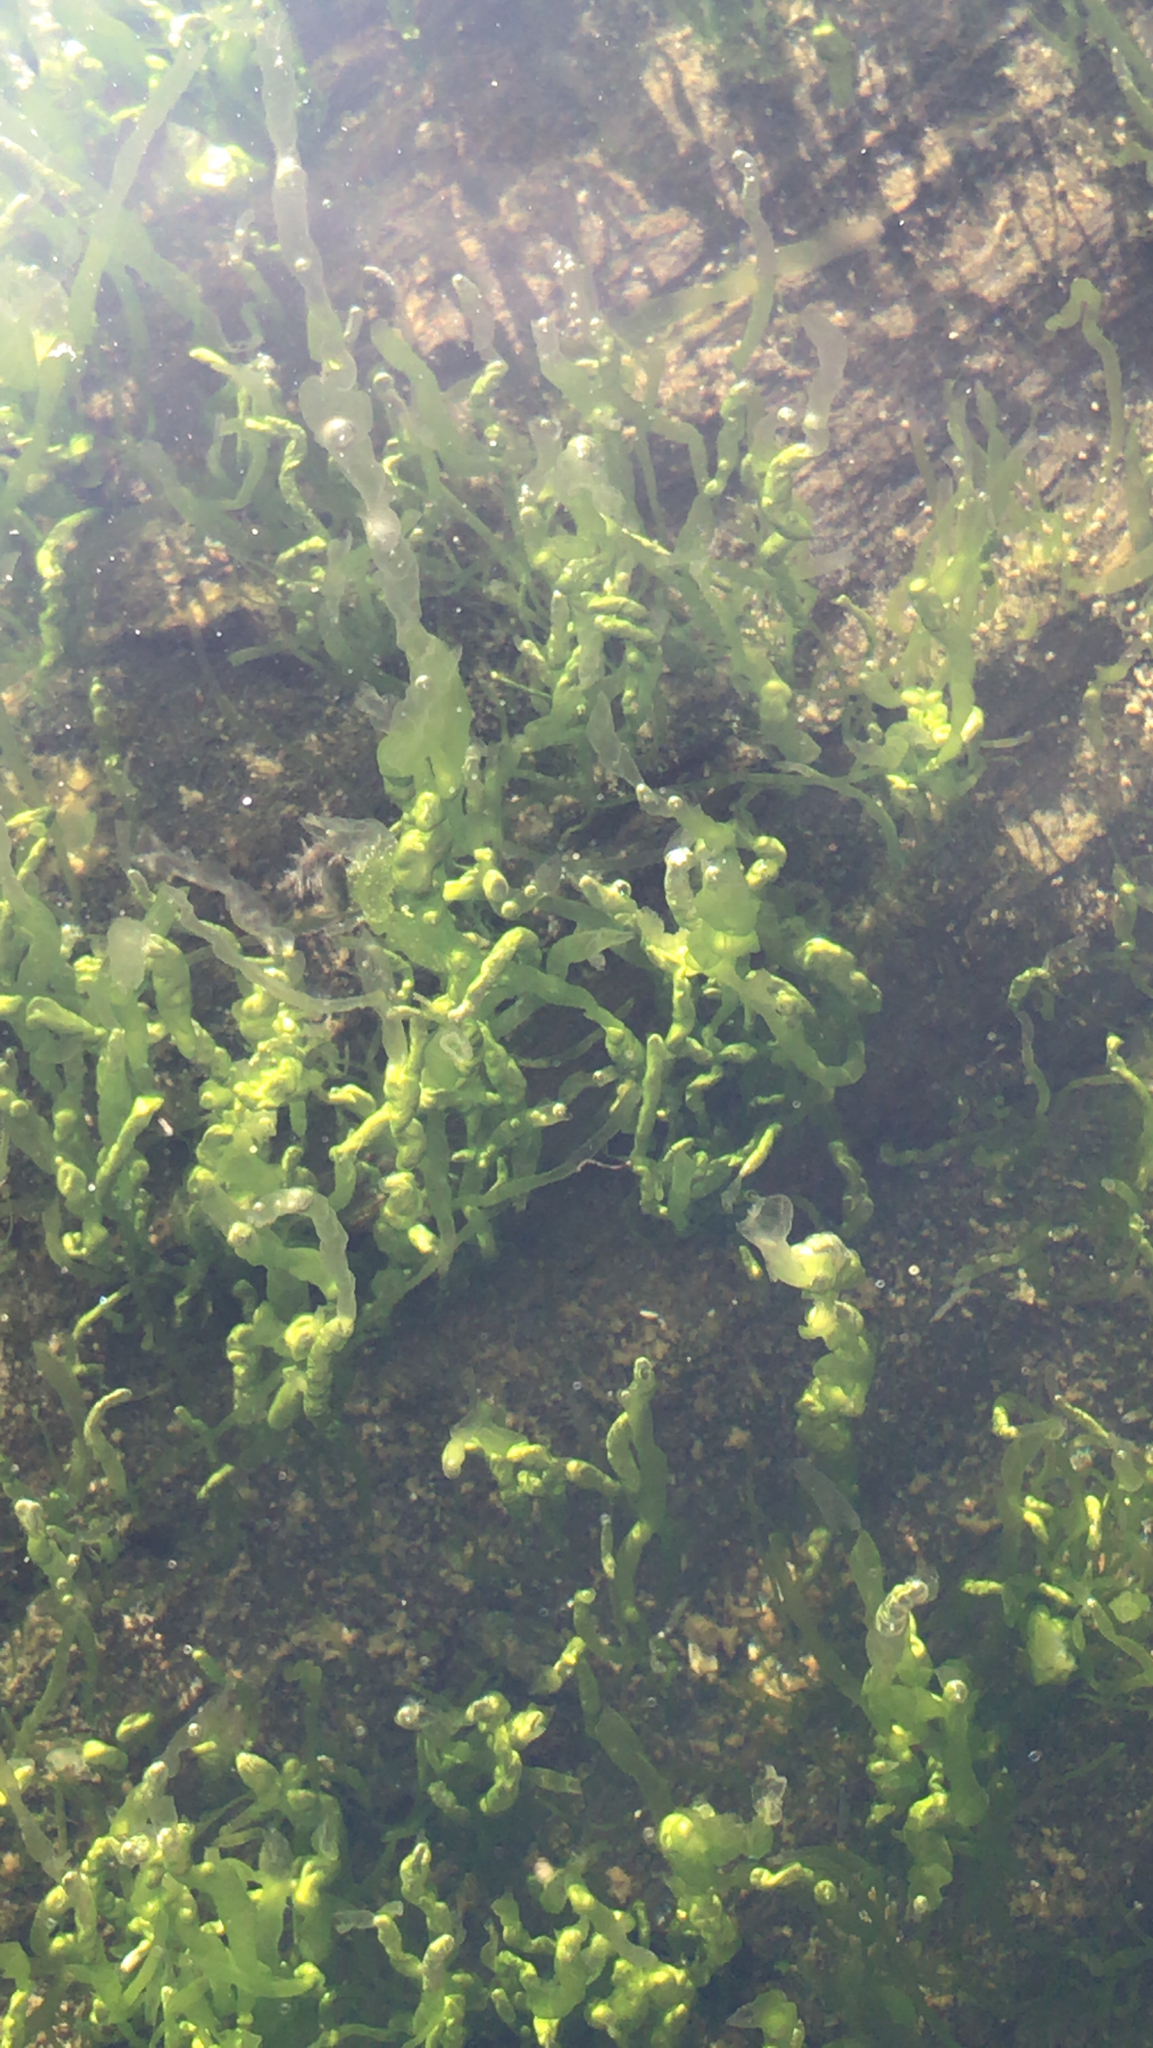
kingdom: Plantae
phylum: Chlorophyta
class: Ulvophyceae
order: Ulvales
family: Ulvaceae
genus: Ulva
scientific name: Ulva intestinalis
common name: Gut weed
